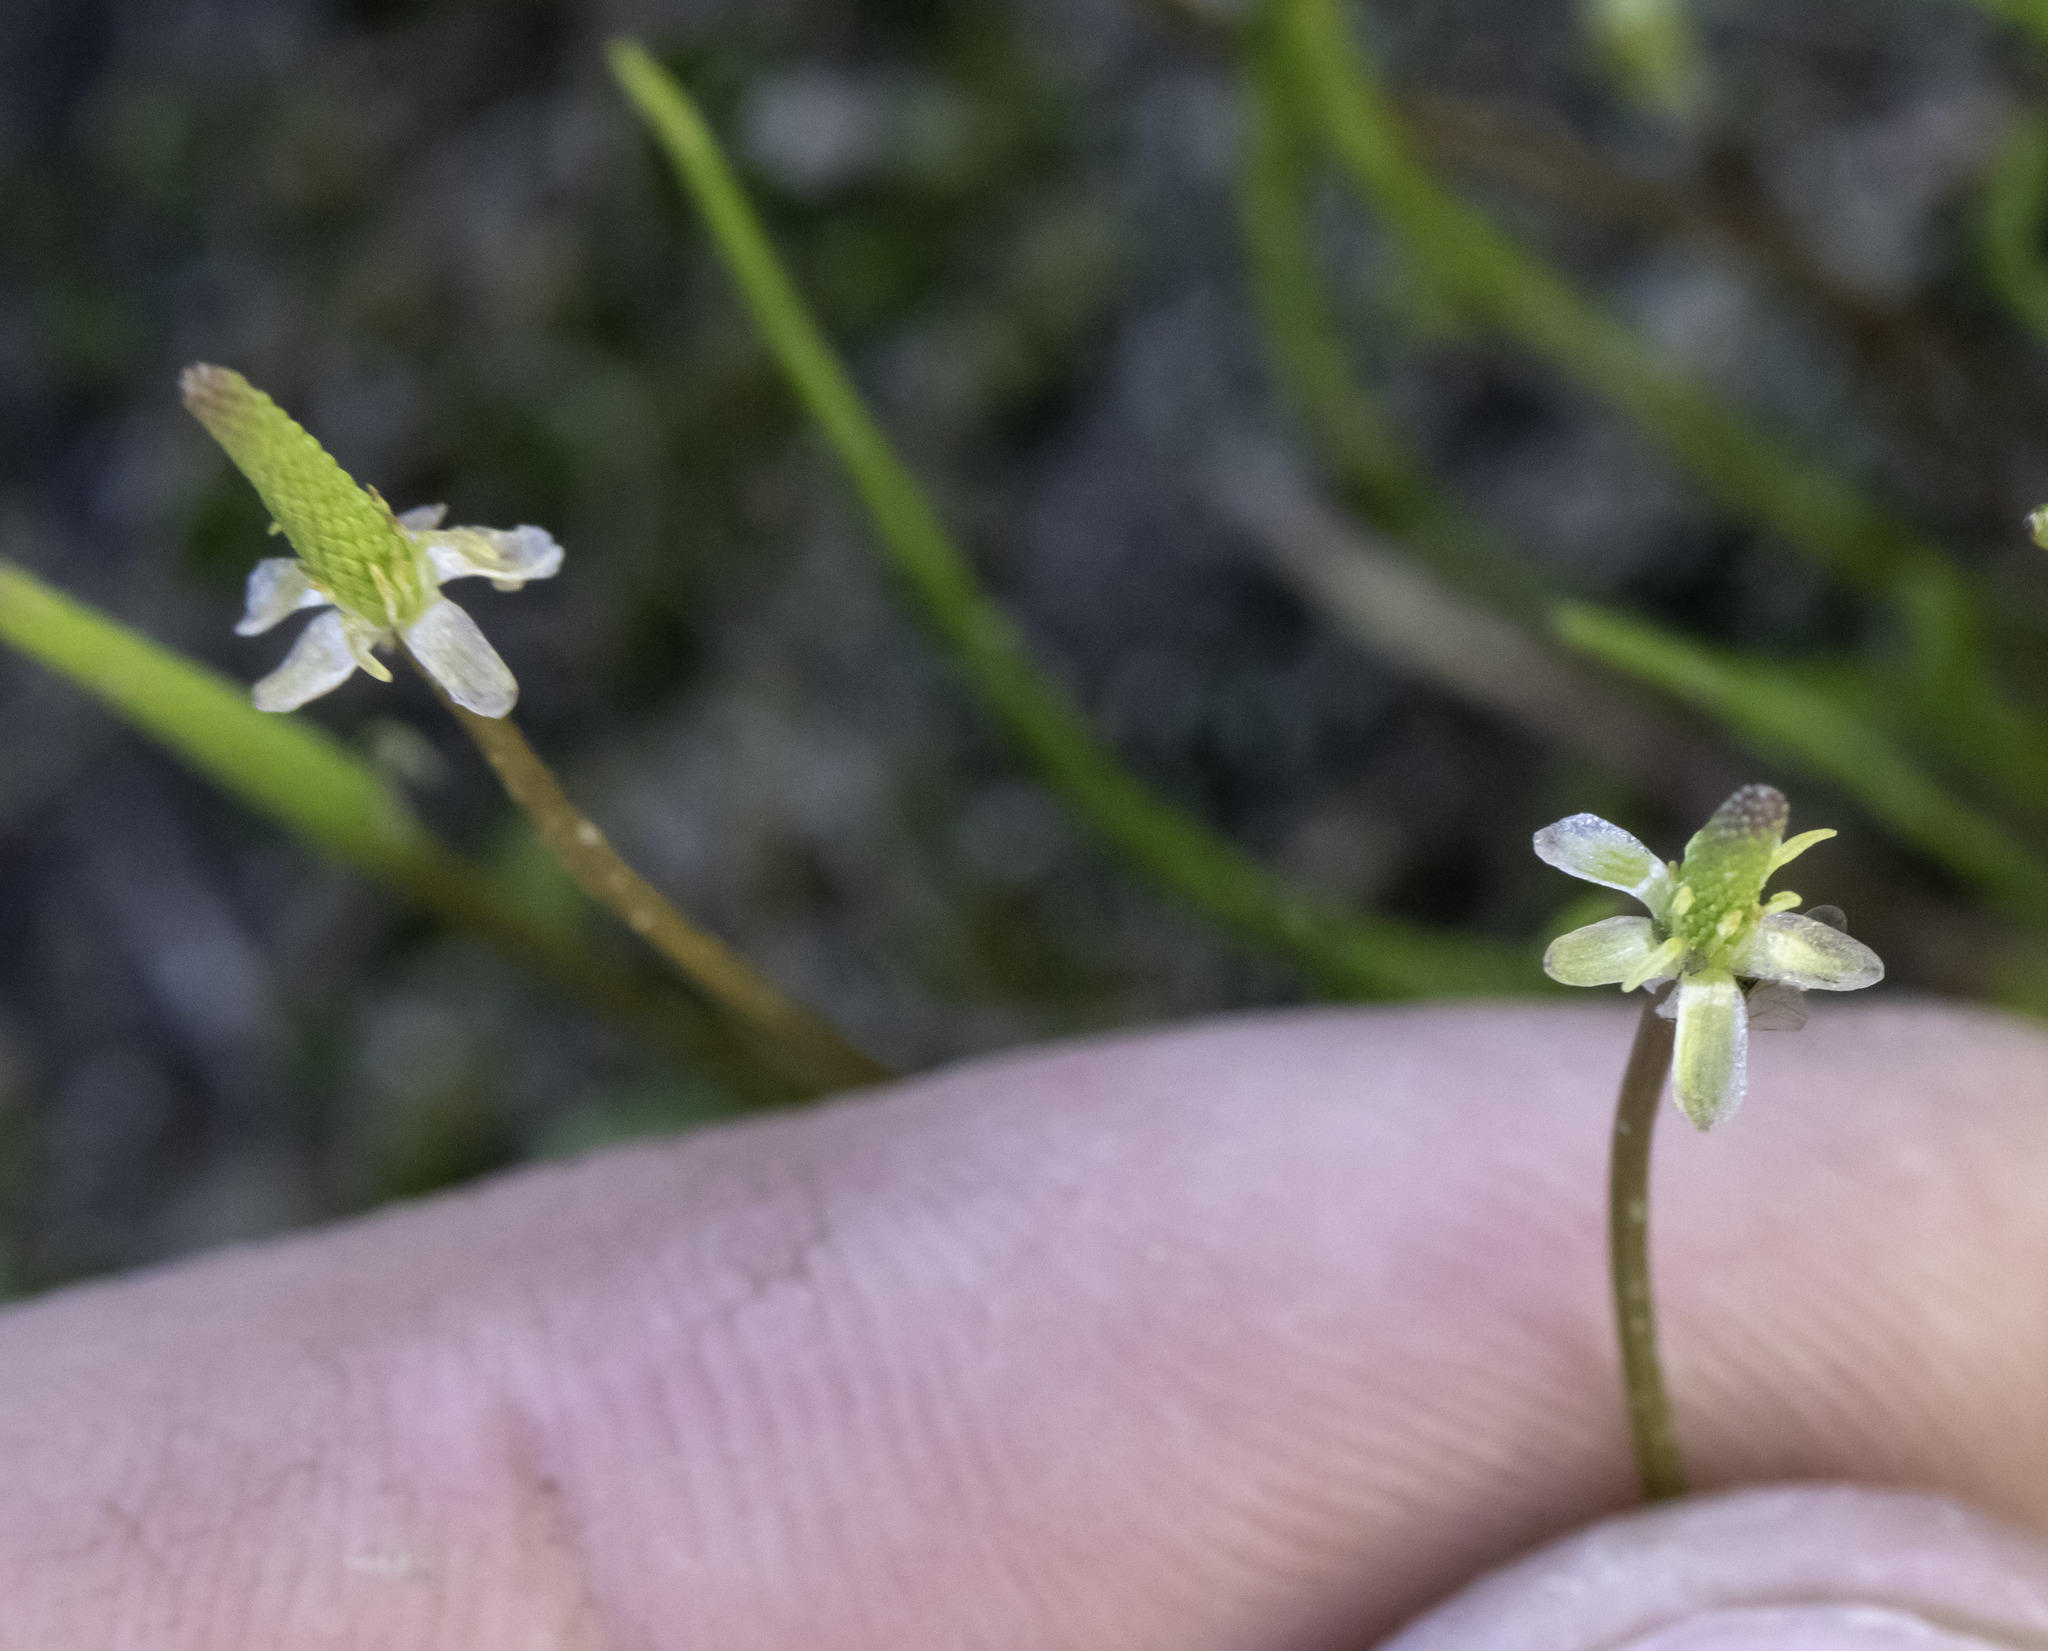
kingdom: Plantae
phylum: Tracheophyta
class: Magnoliopsida
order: Ranunculales
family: Ranunculaceae
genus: Myosurus
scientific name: Myosurus minimus
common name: Mousetail
